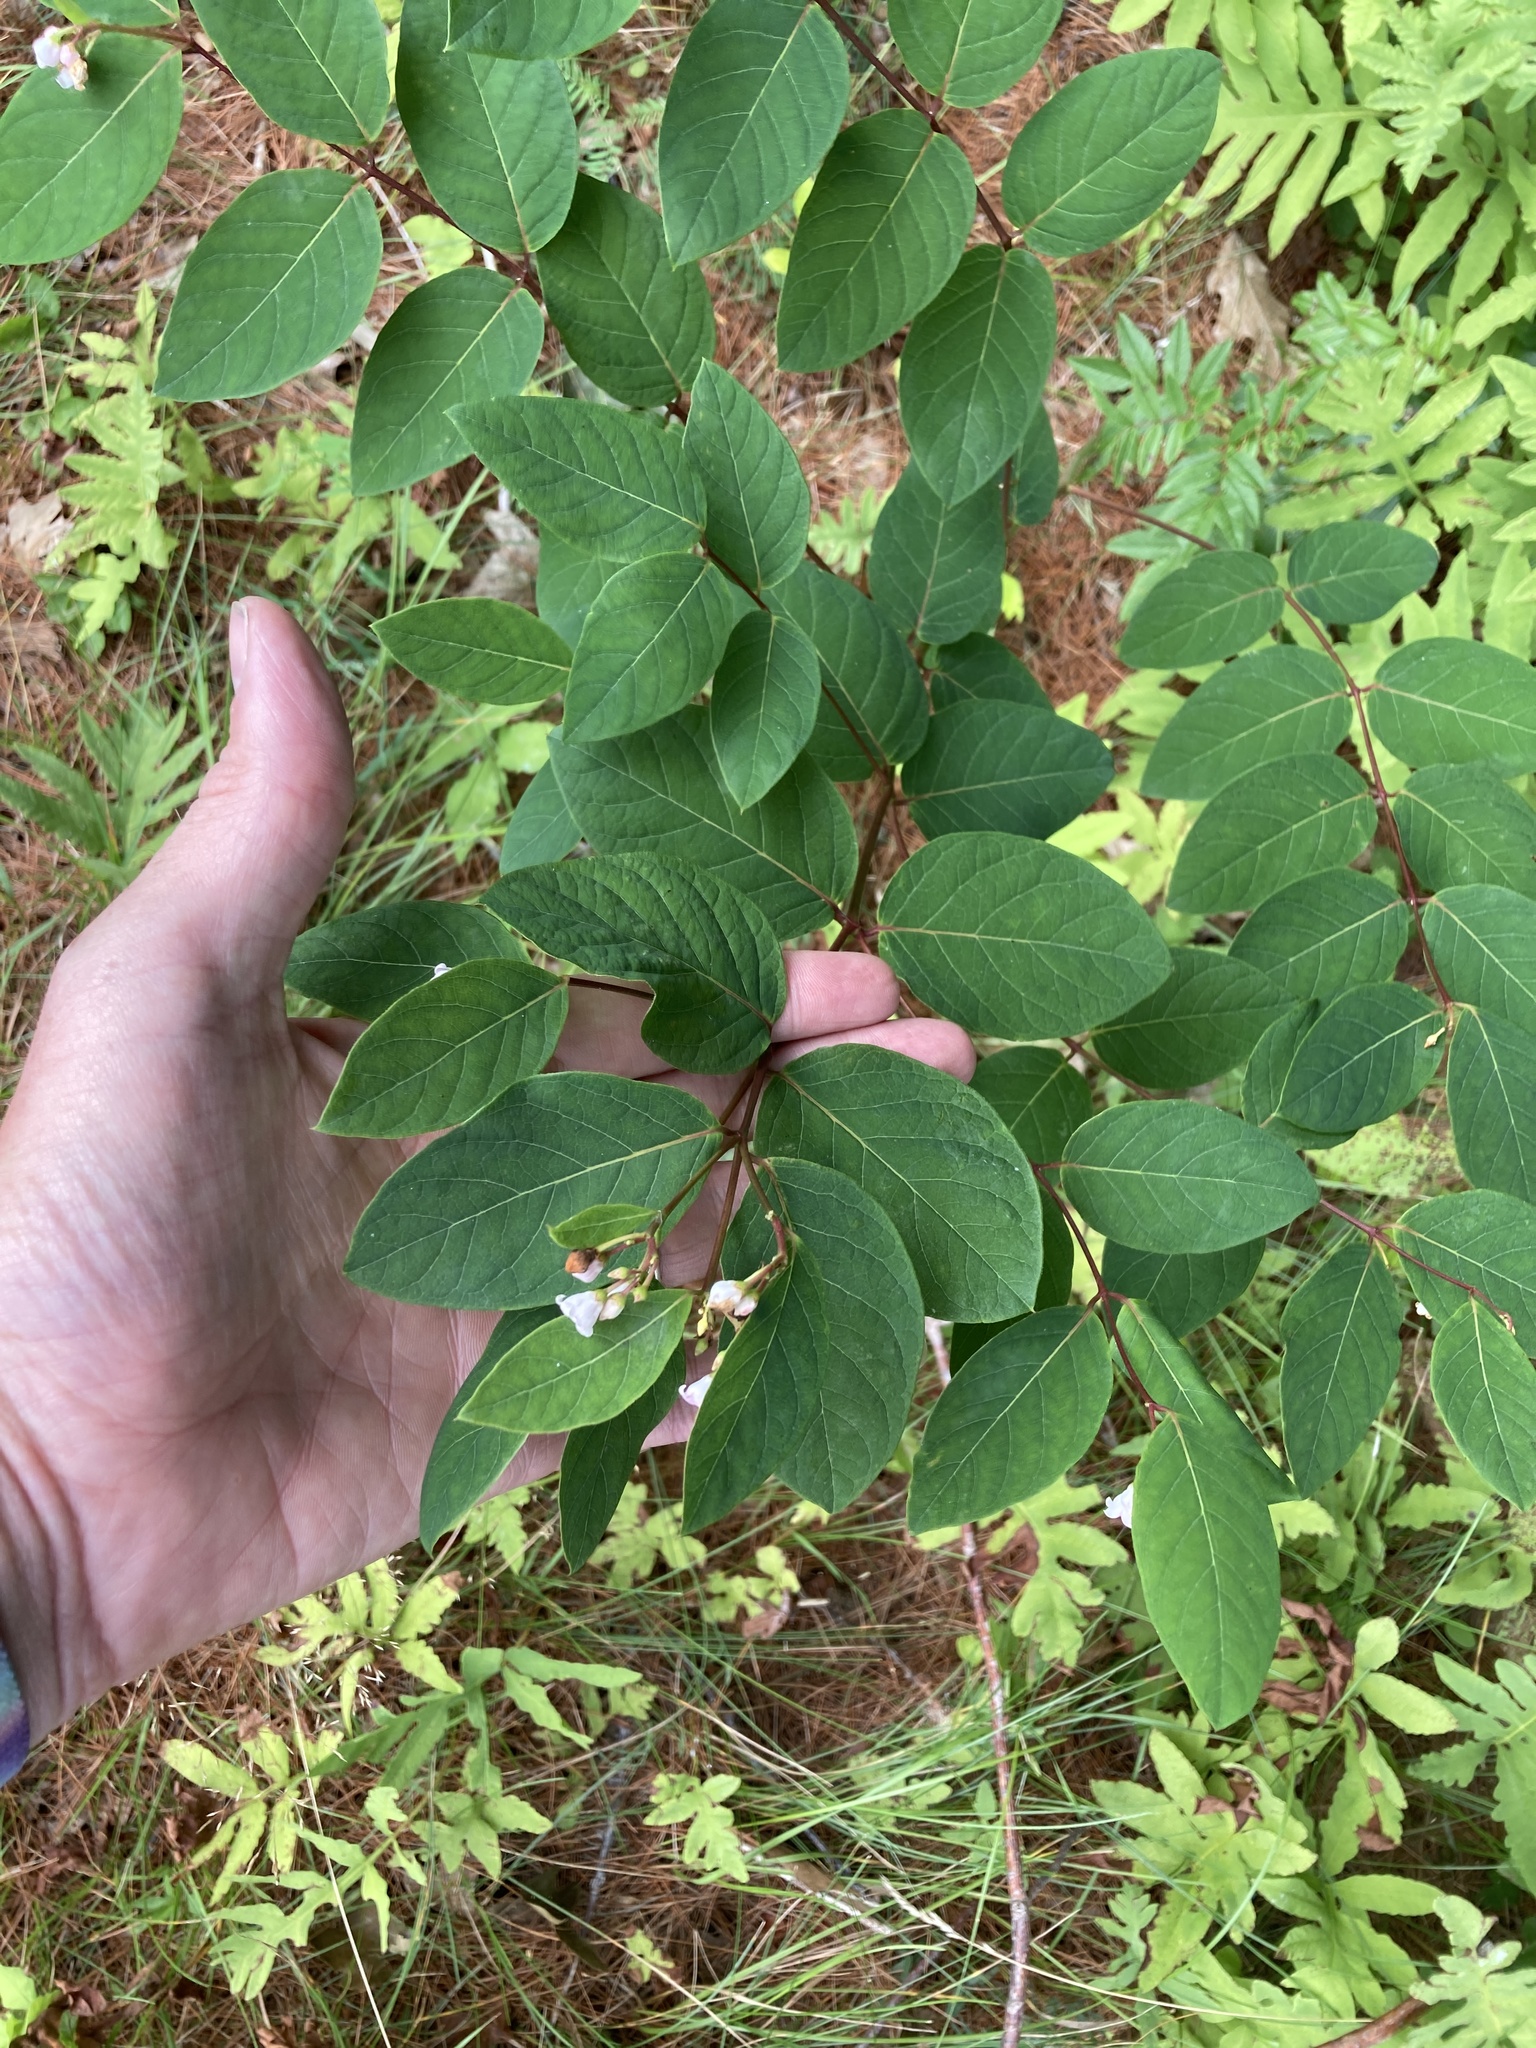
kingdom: Plantae
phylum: Tracheophyta
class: Magnoliopsida
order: Gentianales
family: Apocynaceae
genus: Apocynum
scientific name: Apocynum androsaemifolium
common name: Spreading dogbane
